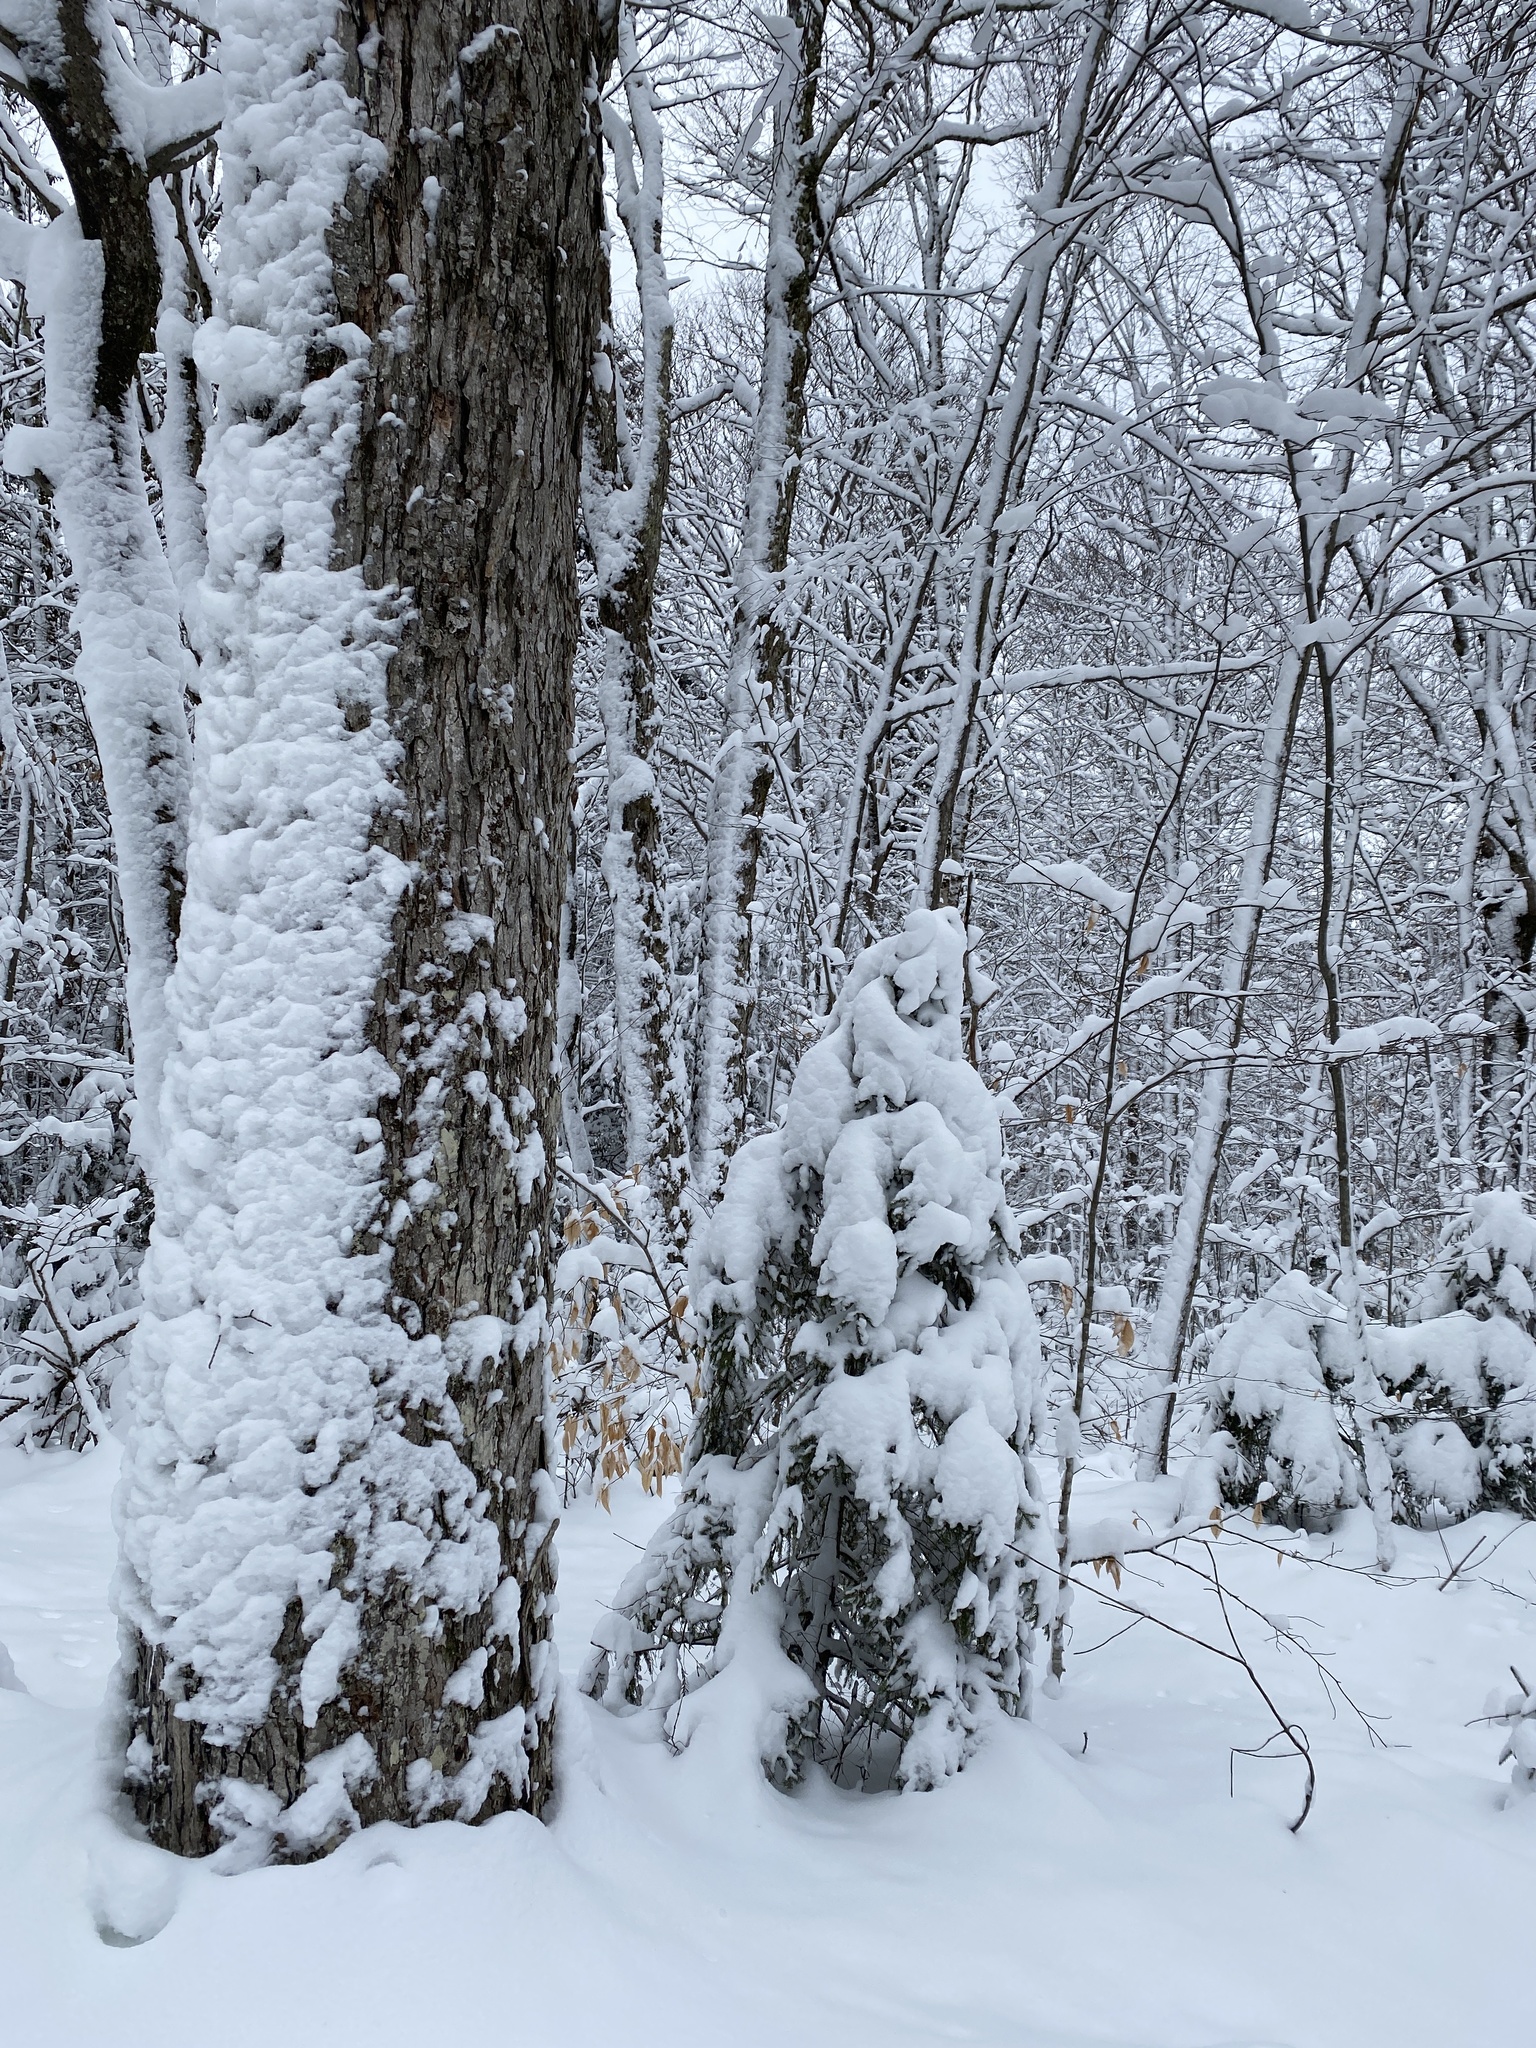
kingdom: Plantae
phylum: Tracheophyta
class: Magnoliopsida
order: Sapindales
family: Sapindaceae
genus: Acer
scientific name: Acer saccharum
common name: Sugar maple
